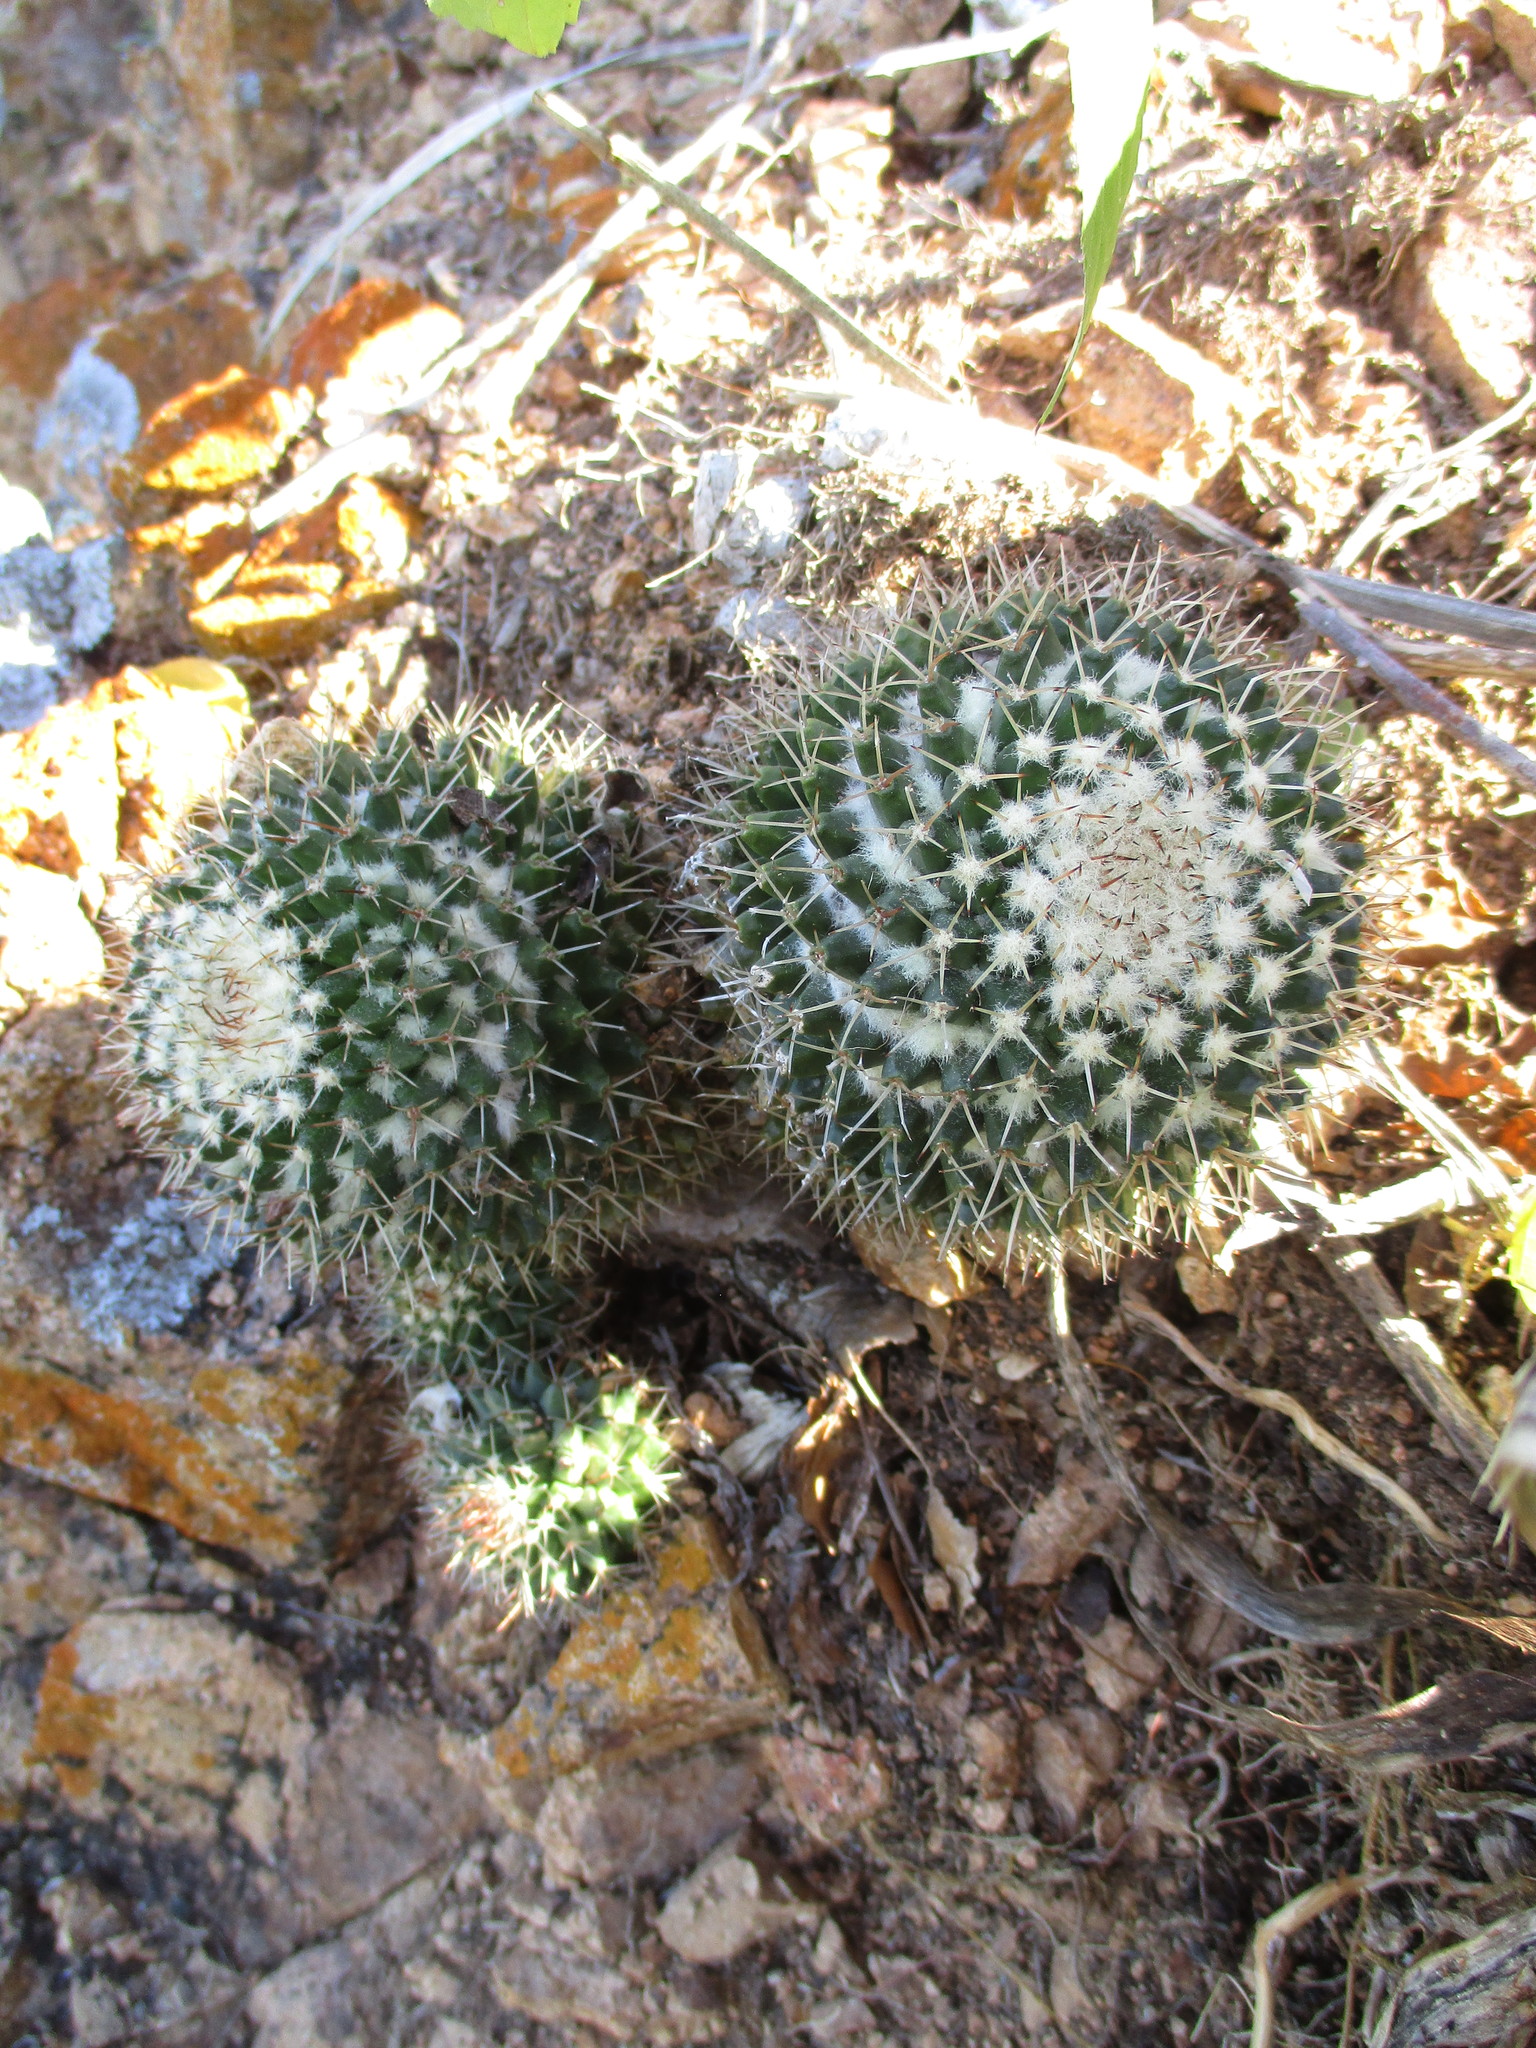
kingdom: Plantae
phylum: Tracheophyta
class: Magnoliopsida
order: Caryophyllales
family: Cactaceae
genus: Mammillaria
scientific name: Mammillaria karwinskiana
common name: Royal cross
